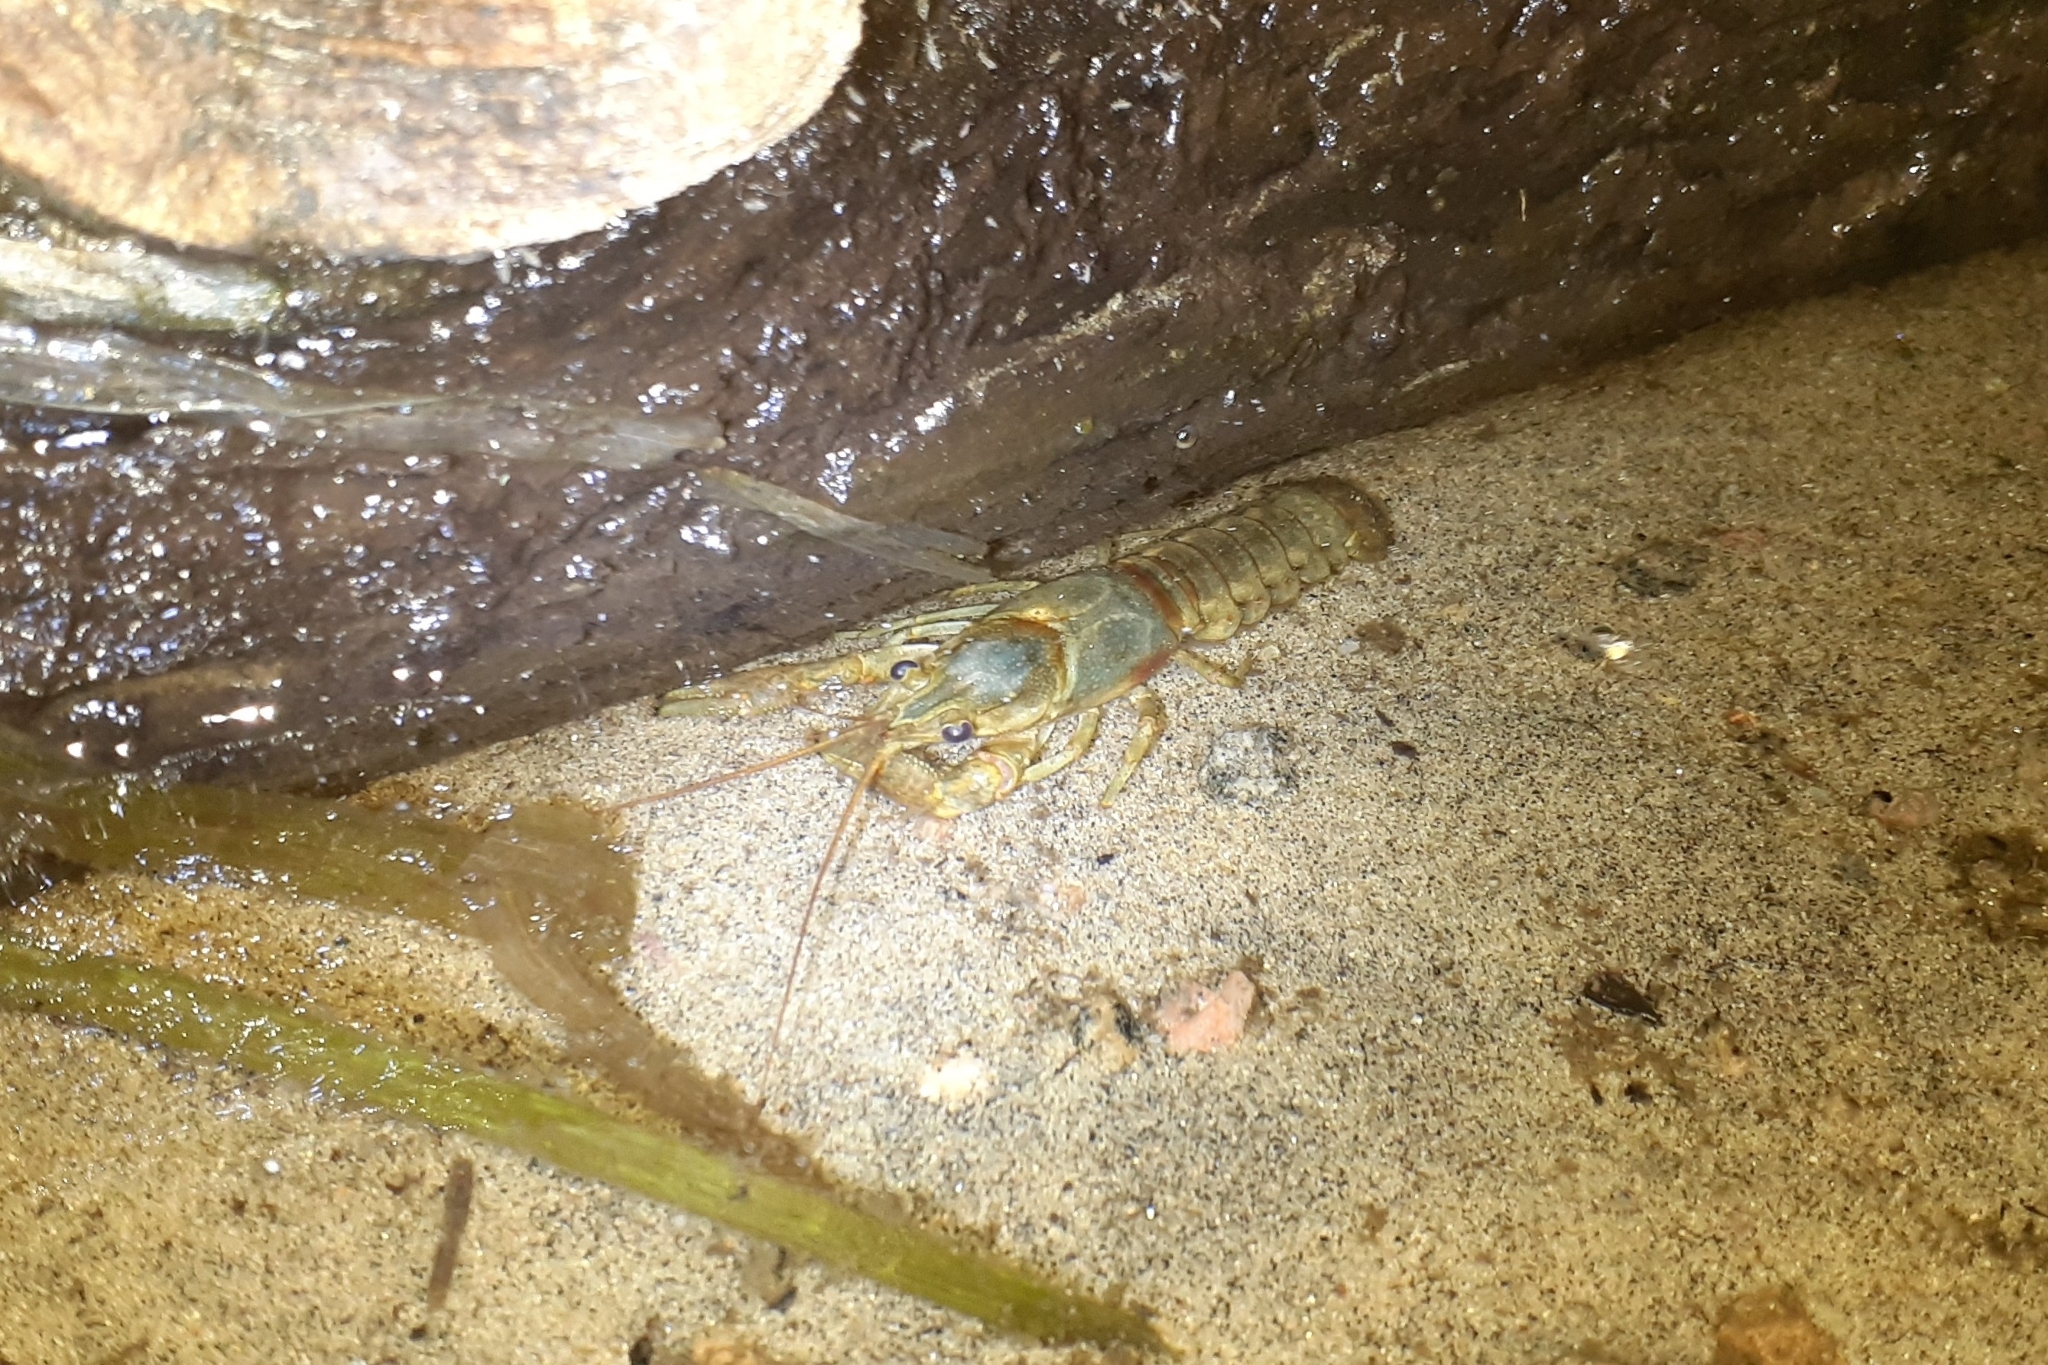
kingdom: Animalia
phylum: Arthropoda
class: Malacostraca
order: Decapoda
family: Cambaridae
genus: Faxonius
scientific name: Faxonius rusticus
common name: Rusty crayfish
